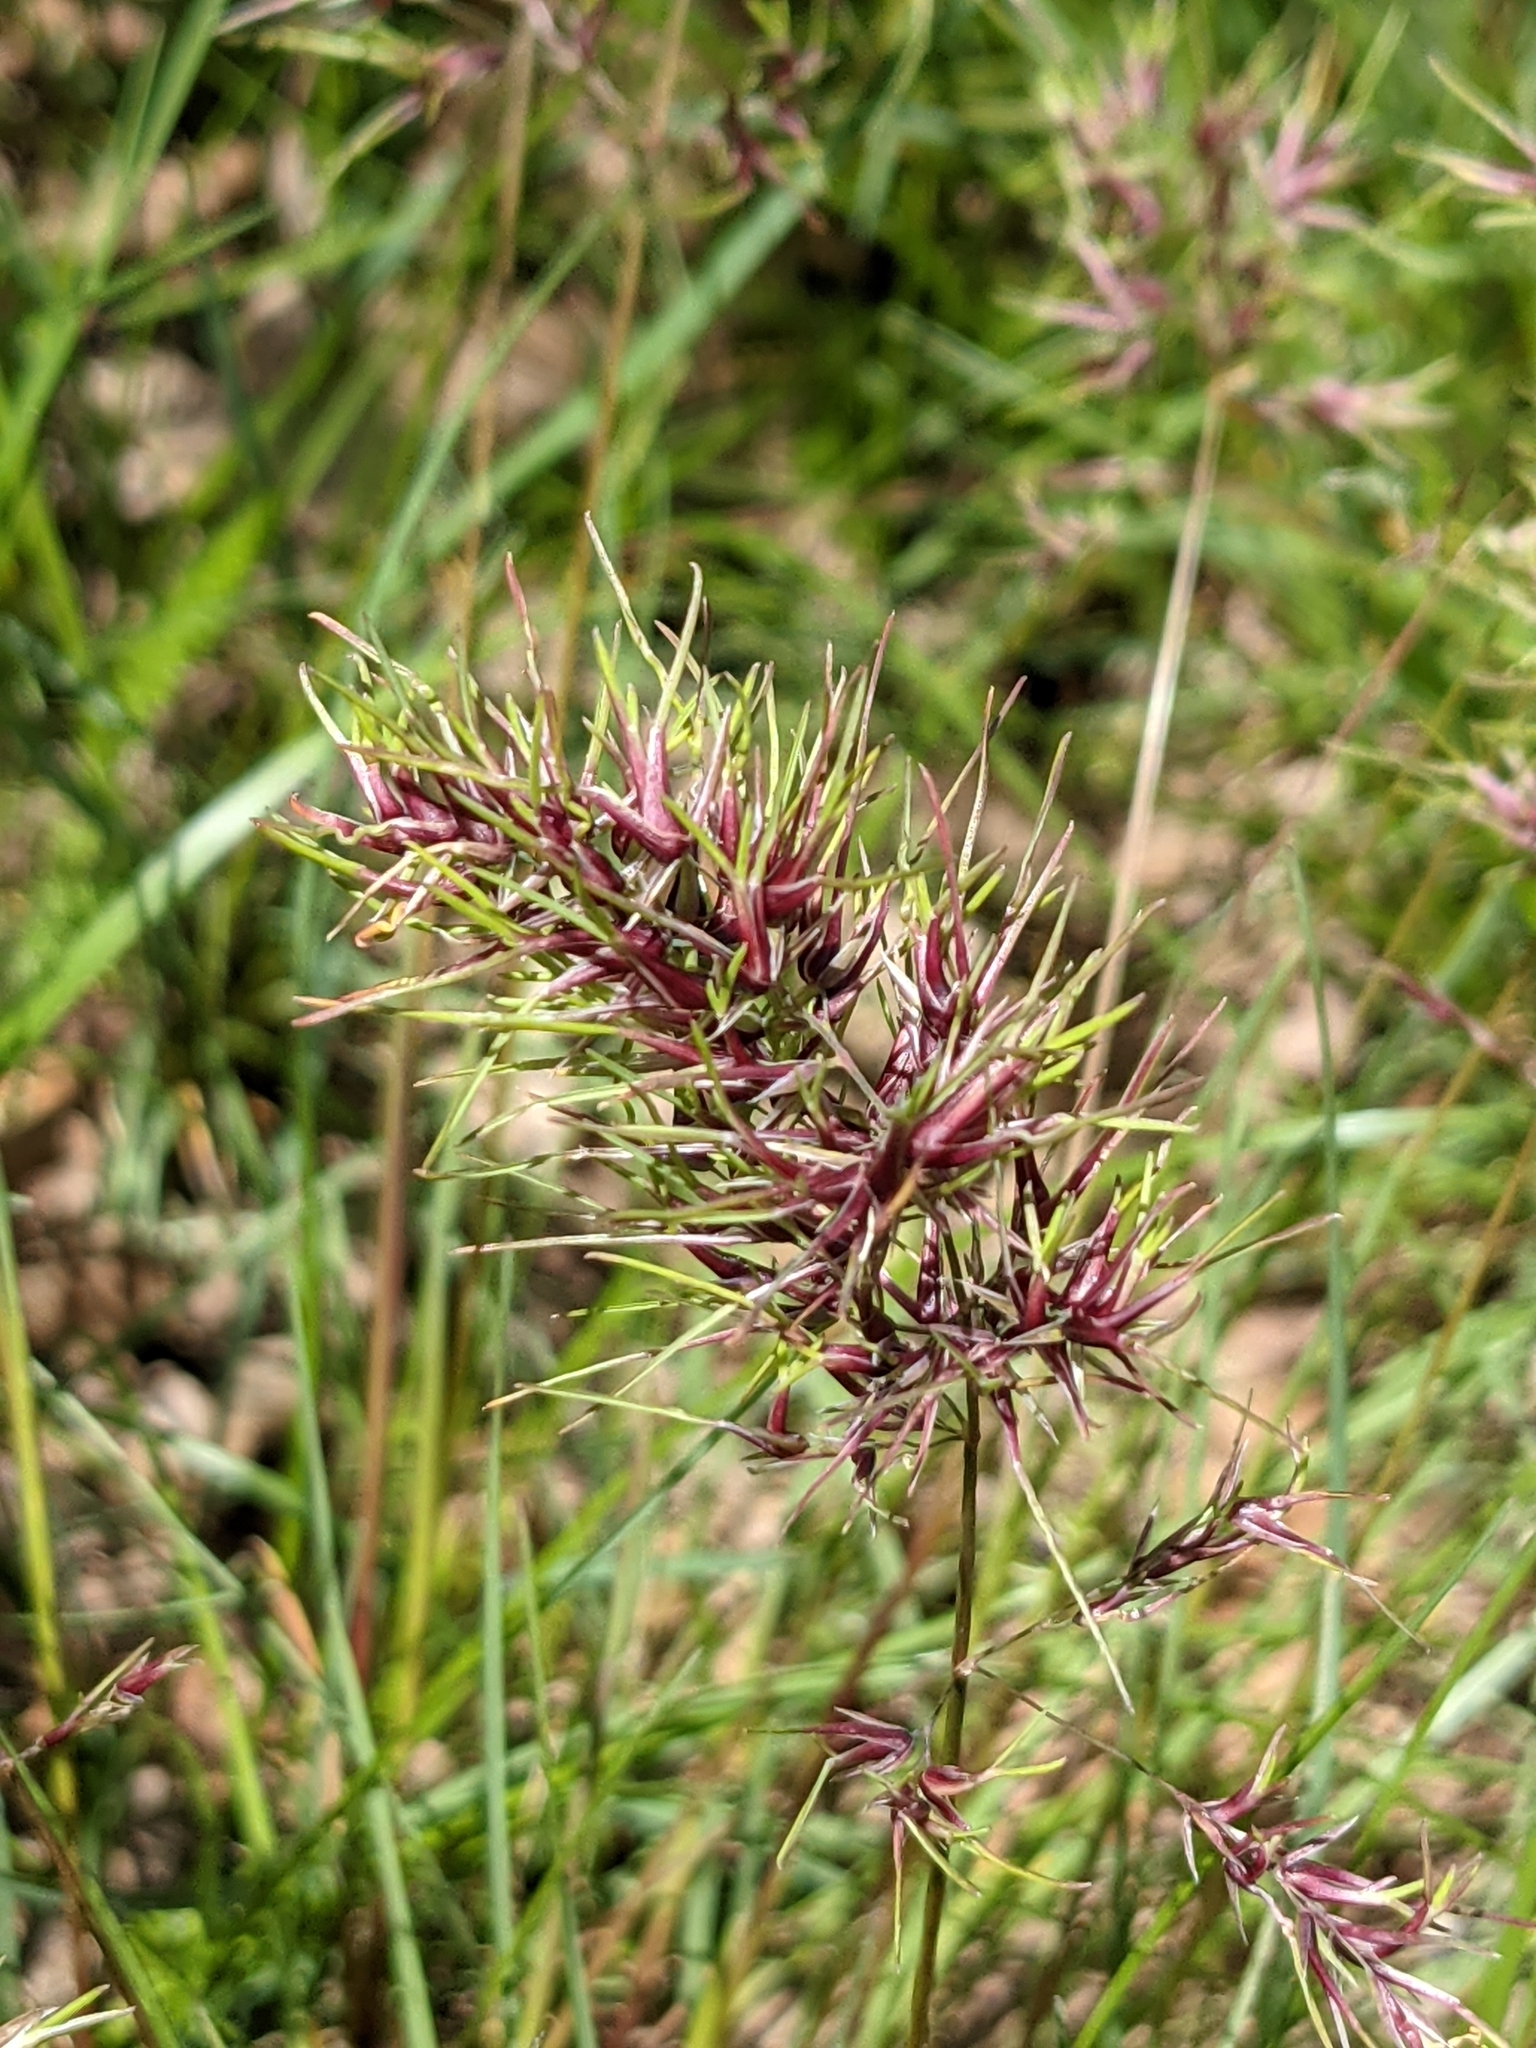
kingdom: Plantae
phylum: Tracheophyta
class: Liliopsida
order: Poales
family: Poaceae
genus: Poa
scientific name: Poa bulbosa
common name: Bulbous bluegrass
